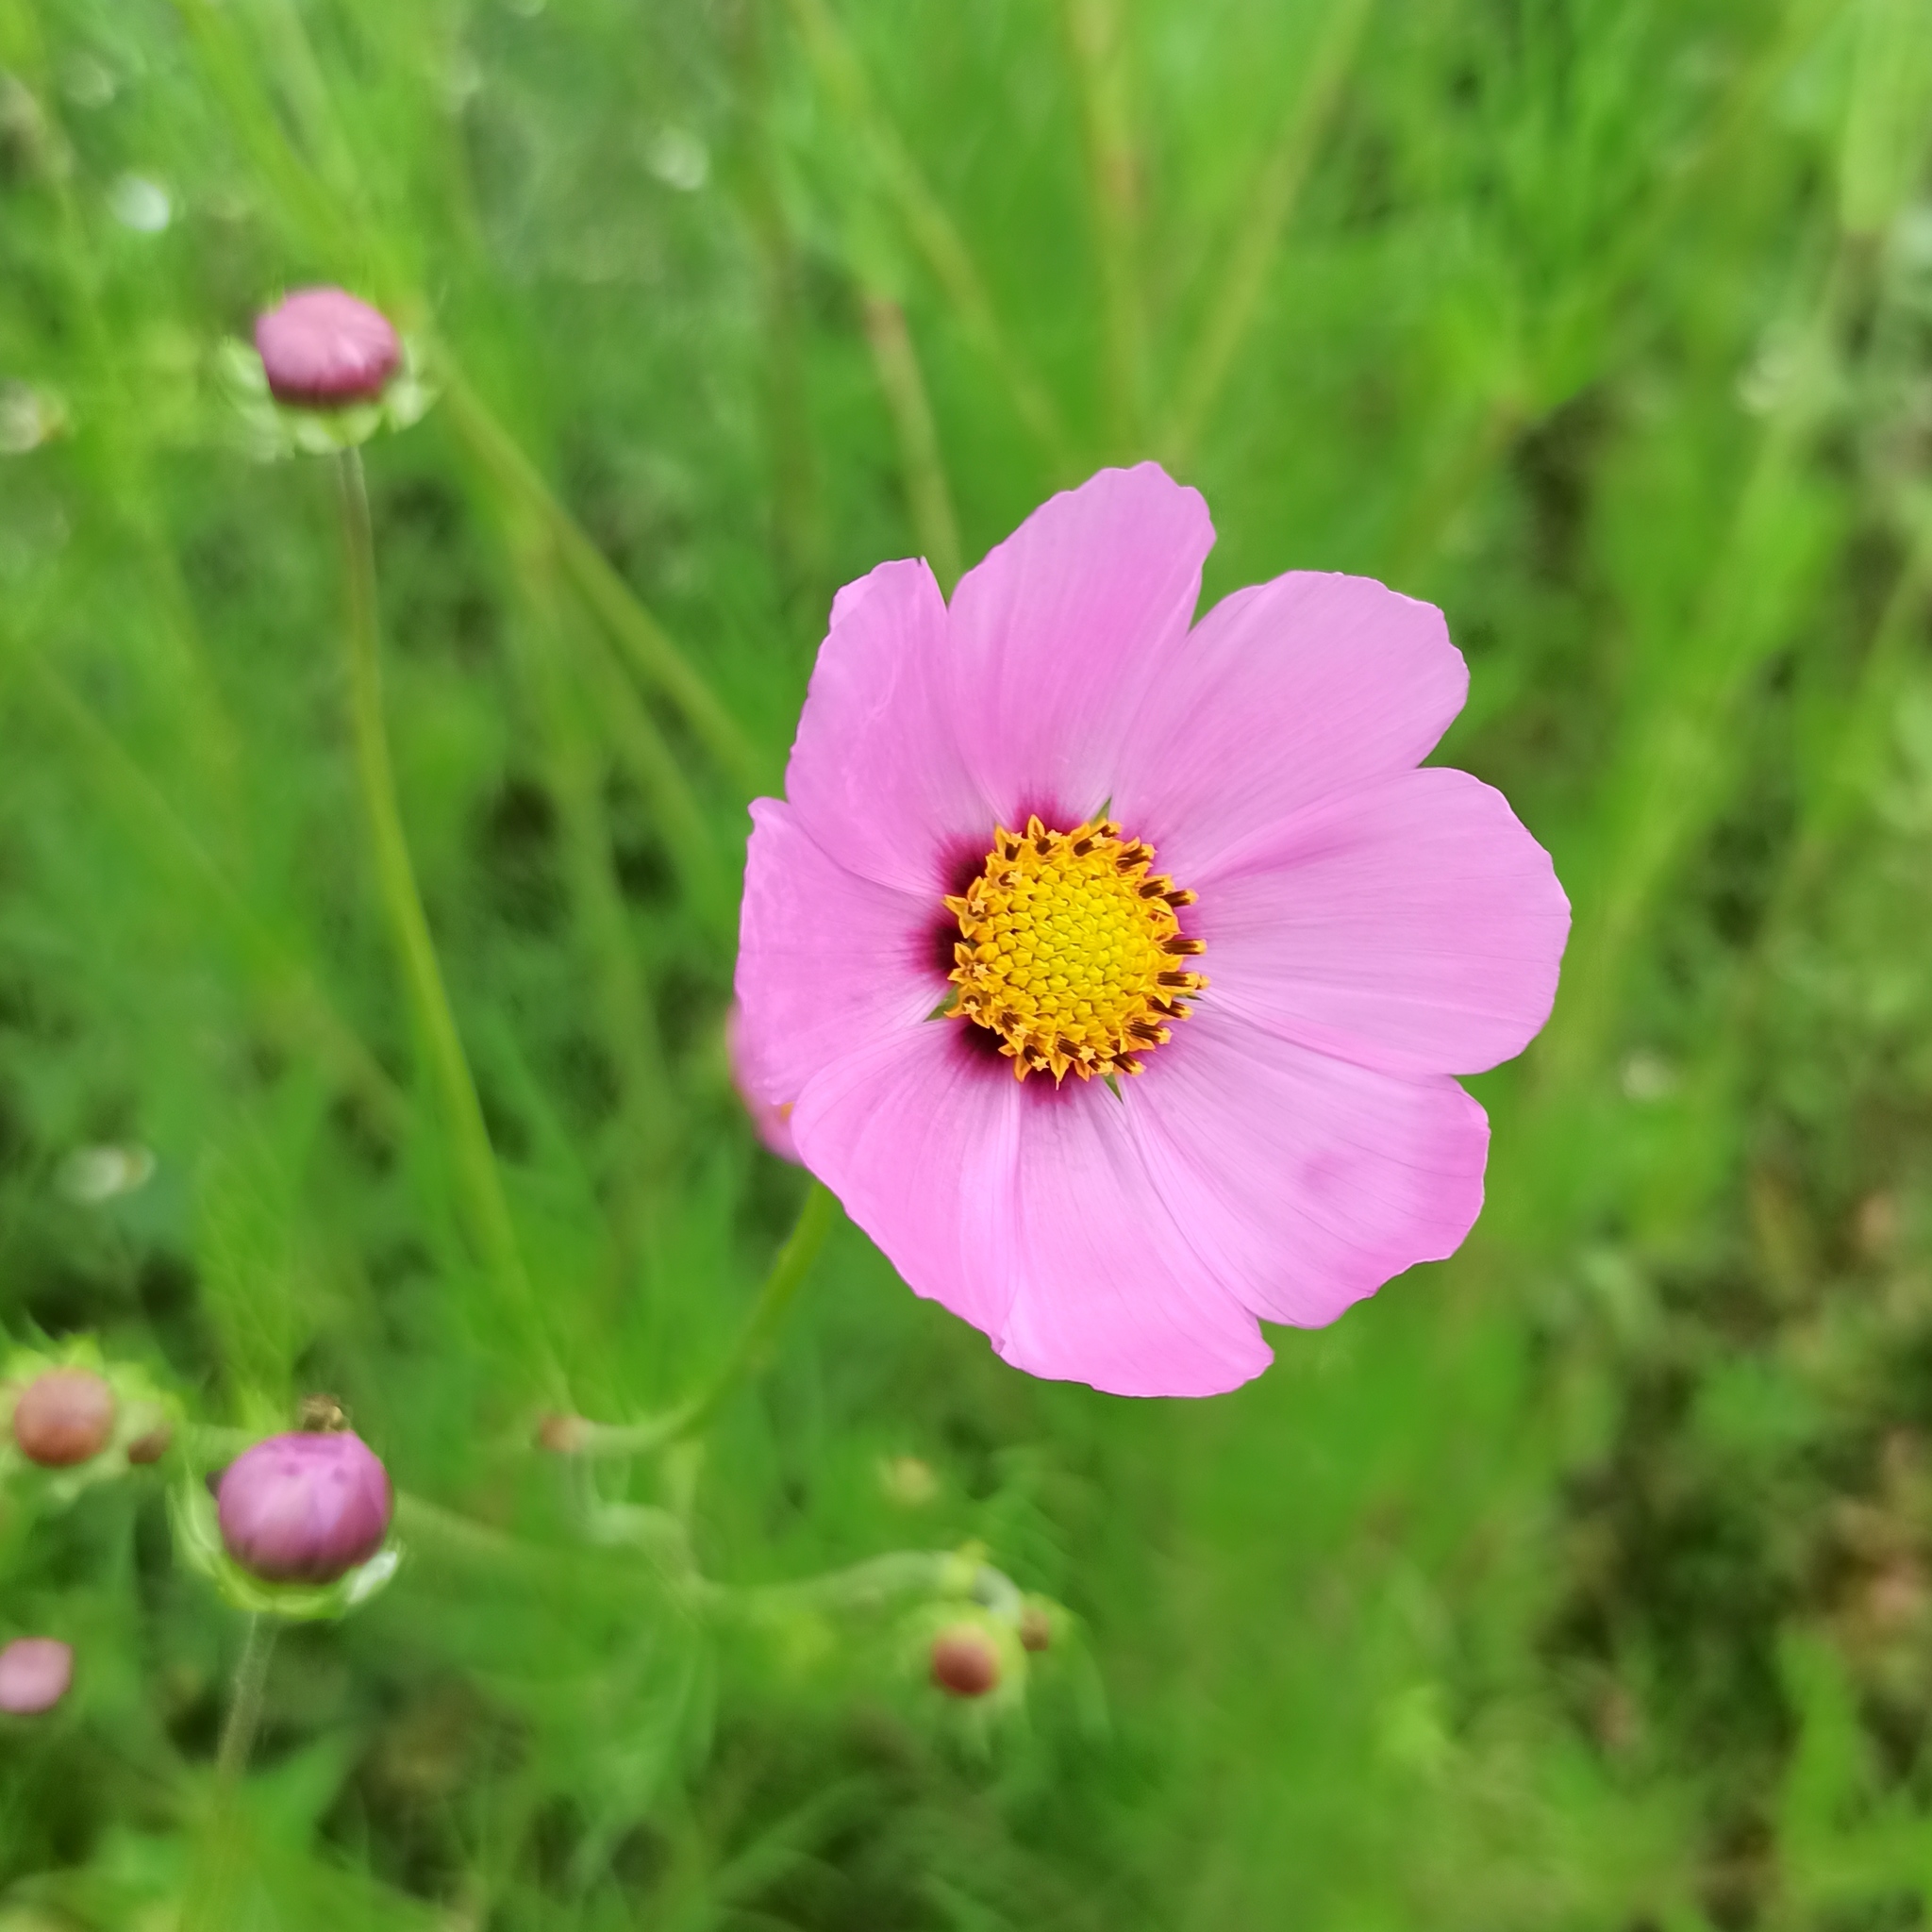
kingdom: Plantae
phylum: Tracheophyta
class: Magnoliopsida
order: Asterales
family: Asteraceae
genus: Cosmos
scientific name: Cosmos bipinnatus
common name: Garden cosmos
